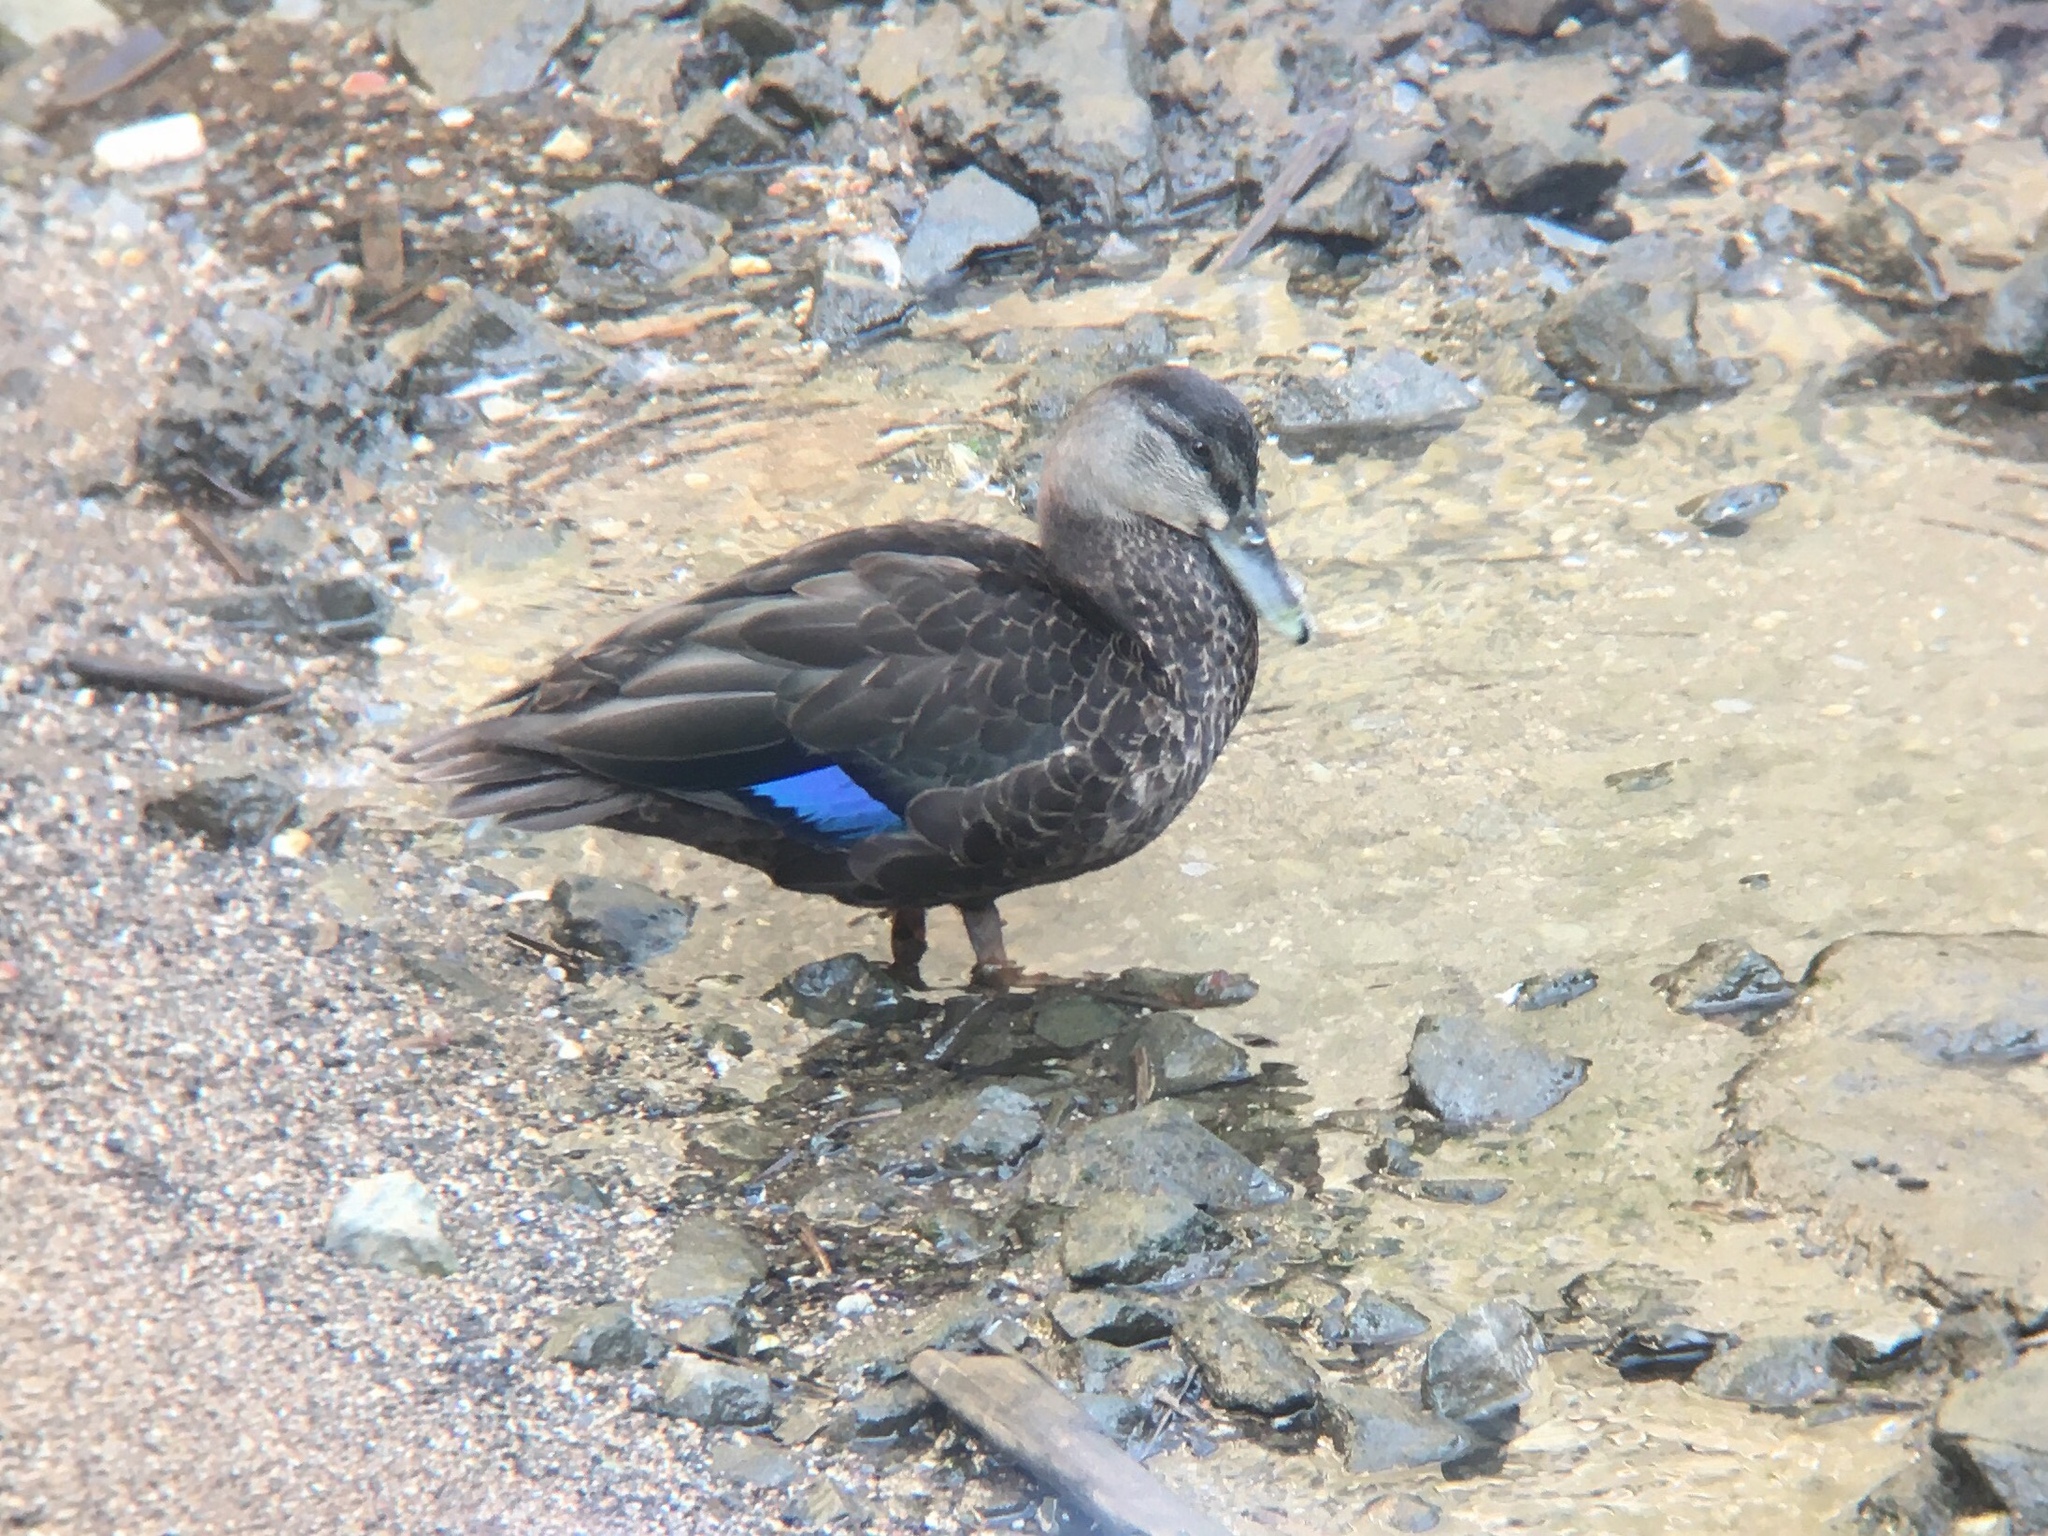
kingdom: Animalia
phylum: Chordata
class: Aves
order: Anseriformes
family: Anatidae
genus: Anas
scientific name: Anas rubripes
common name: American black duck
